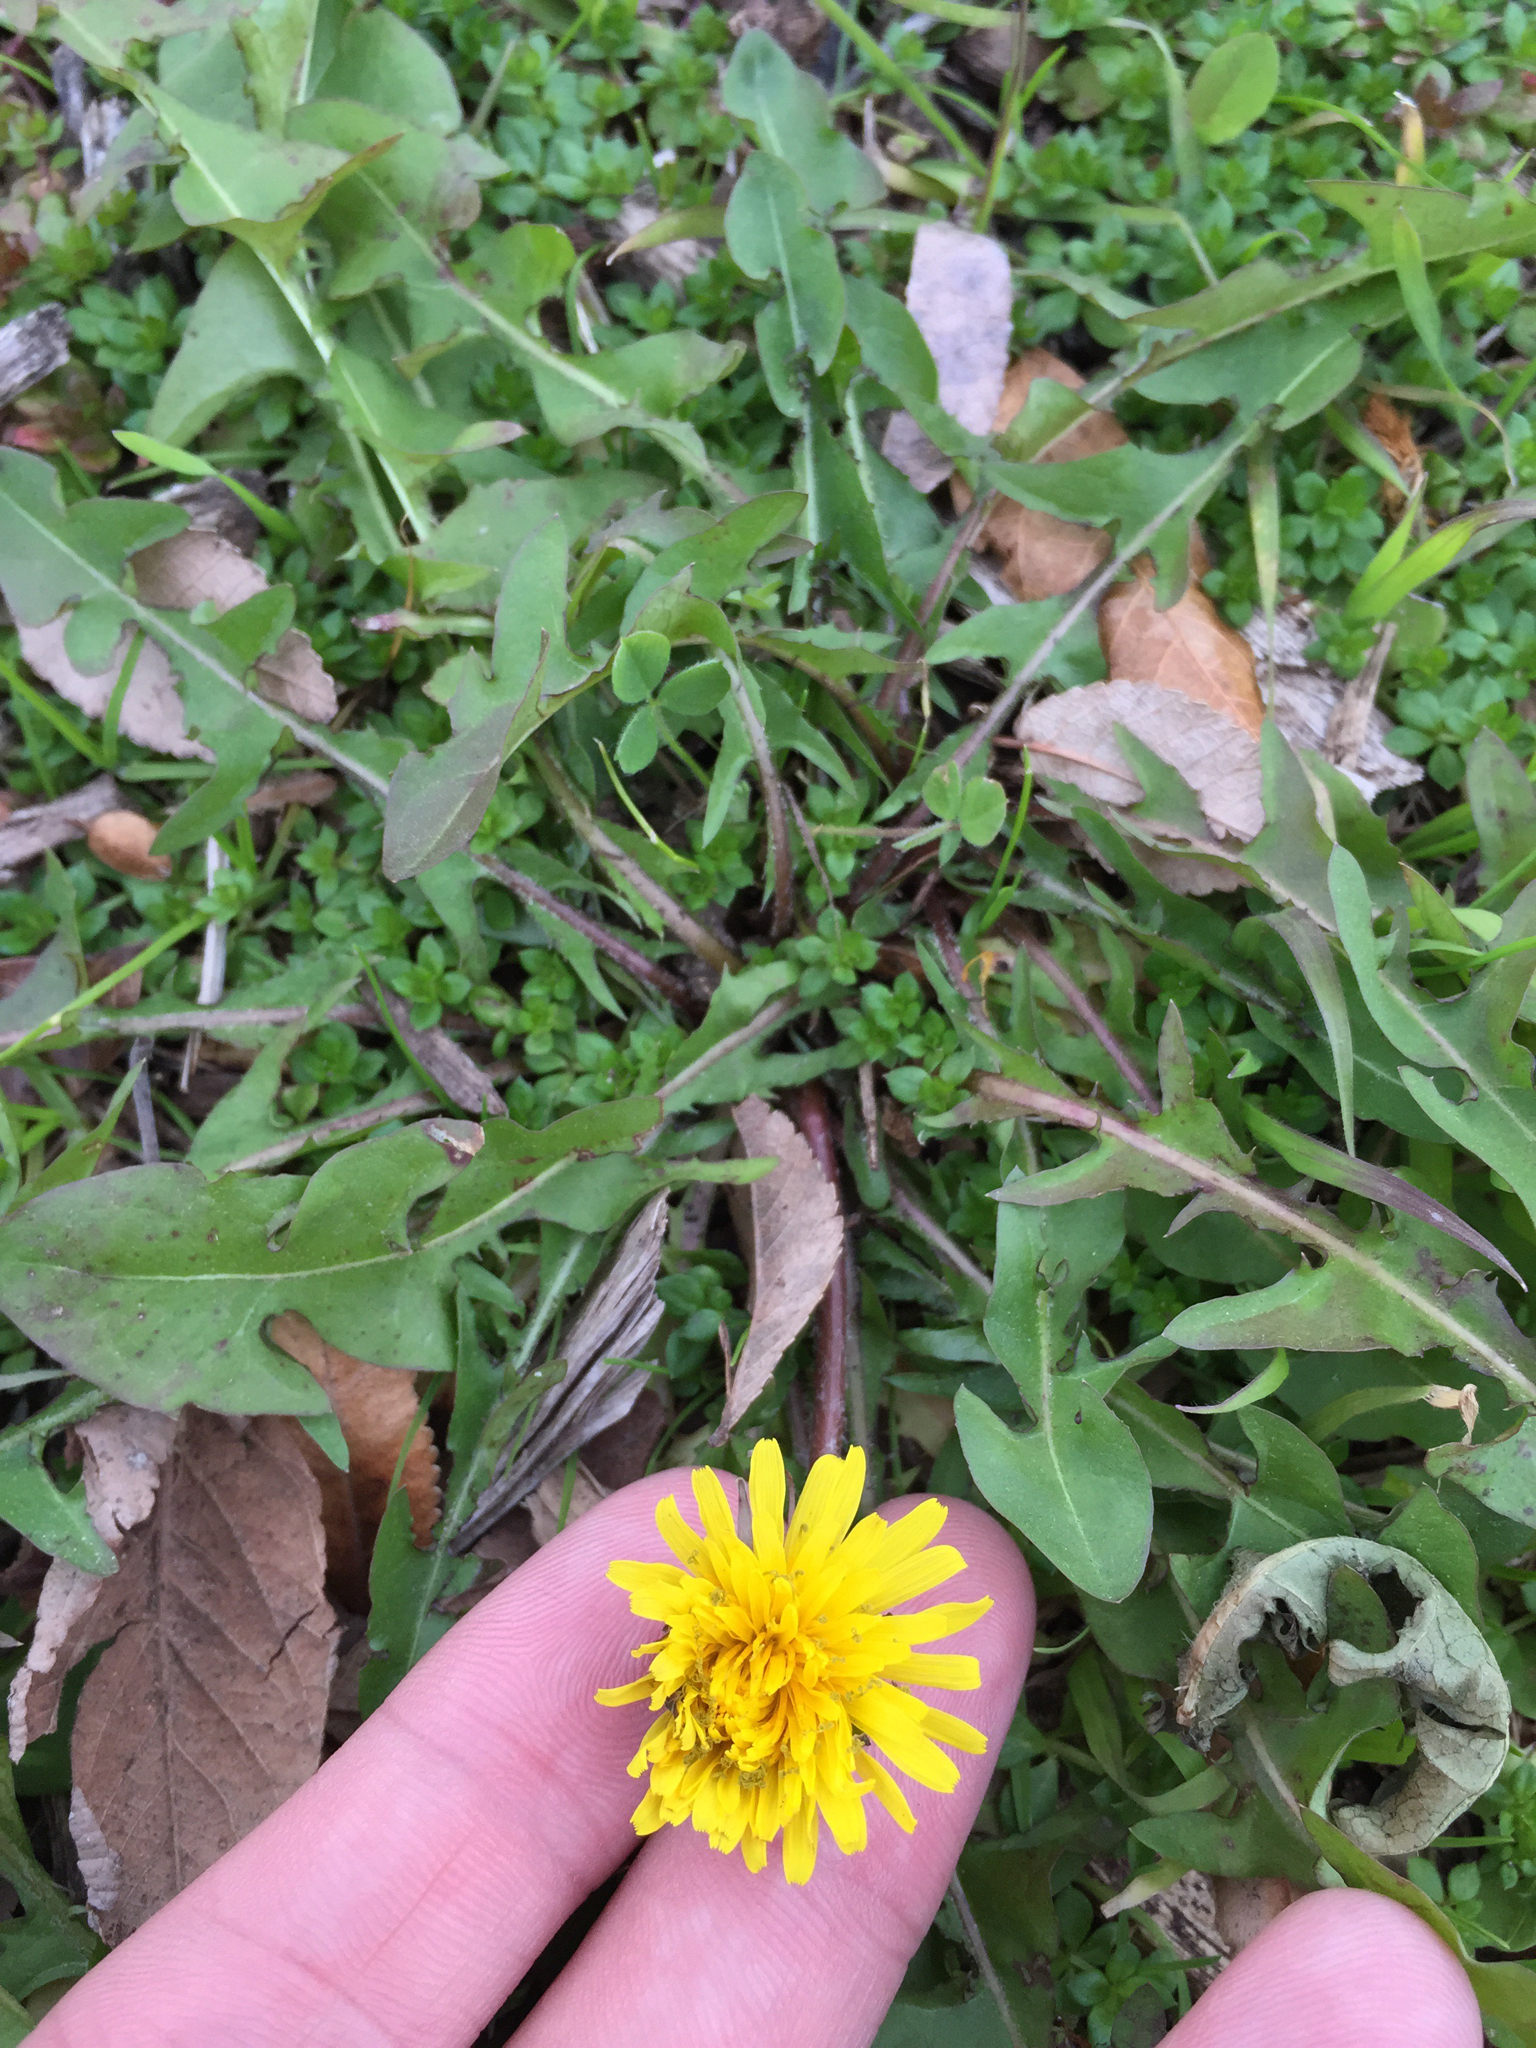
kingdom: Plantae
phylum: Tracheophyta
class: Magnoliopsida
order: Asterales
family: Asteraceae
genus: Taraxacum
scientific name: Taraxacum officinale
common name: Common dandelion
